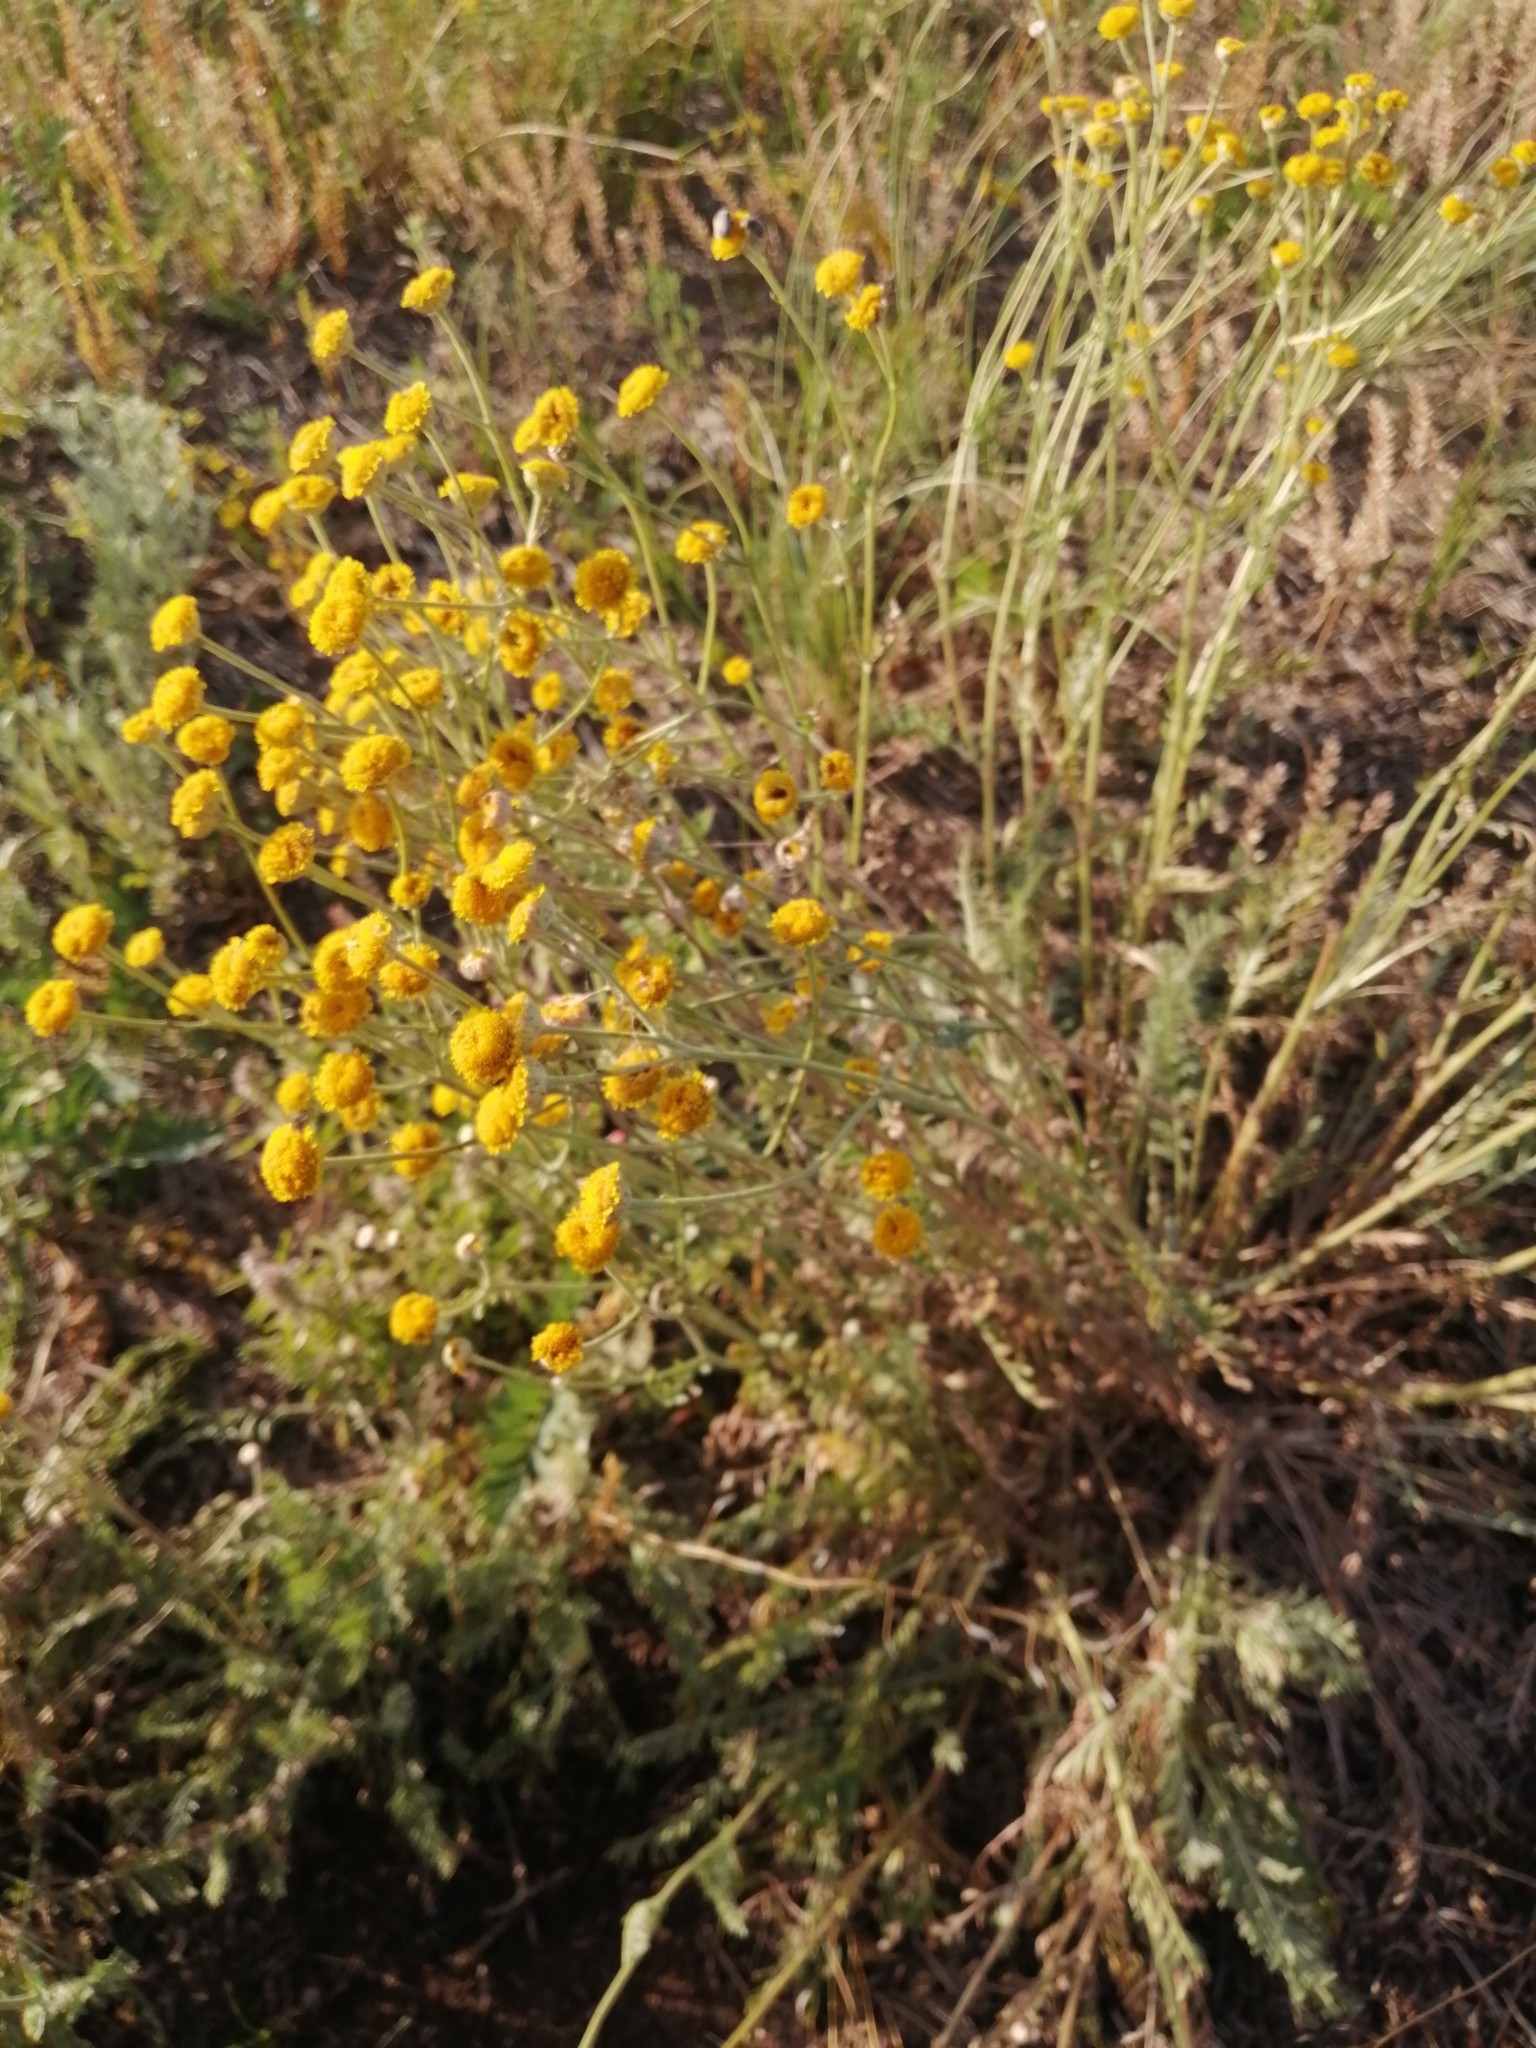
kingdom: Plantae
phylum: Tracheophyta
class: Magnoliopsida
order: Asterales
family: Asteraceae
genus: Tanacetum
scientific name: Tanacetum achilleifolium
